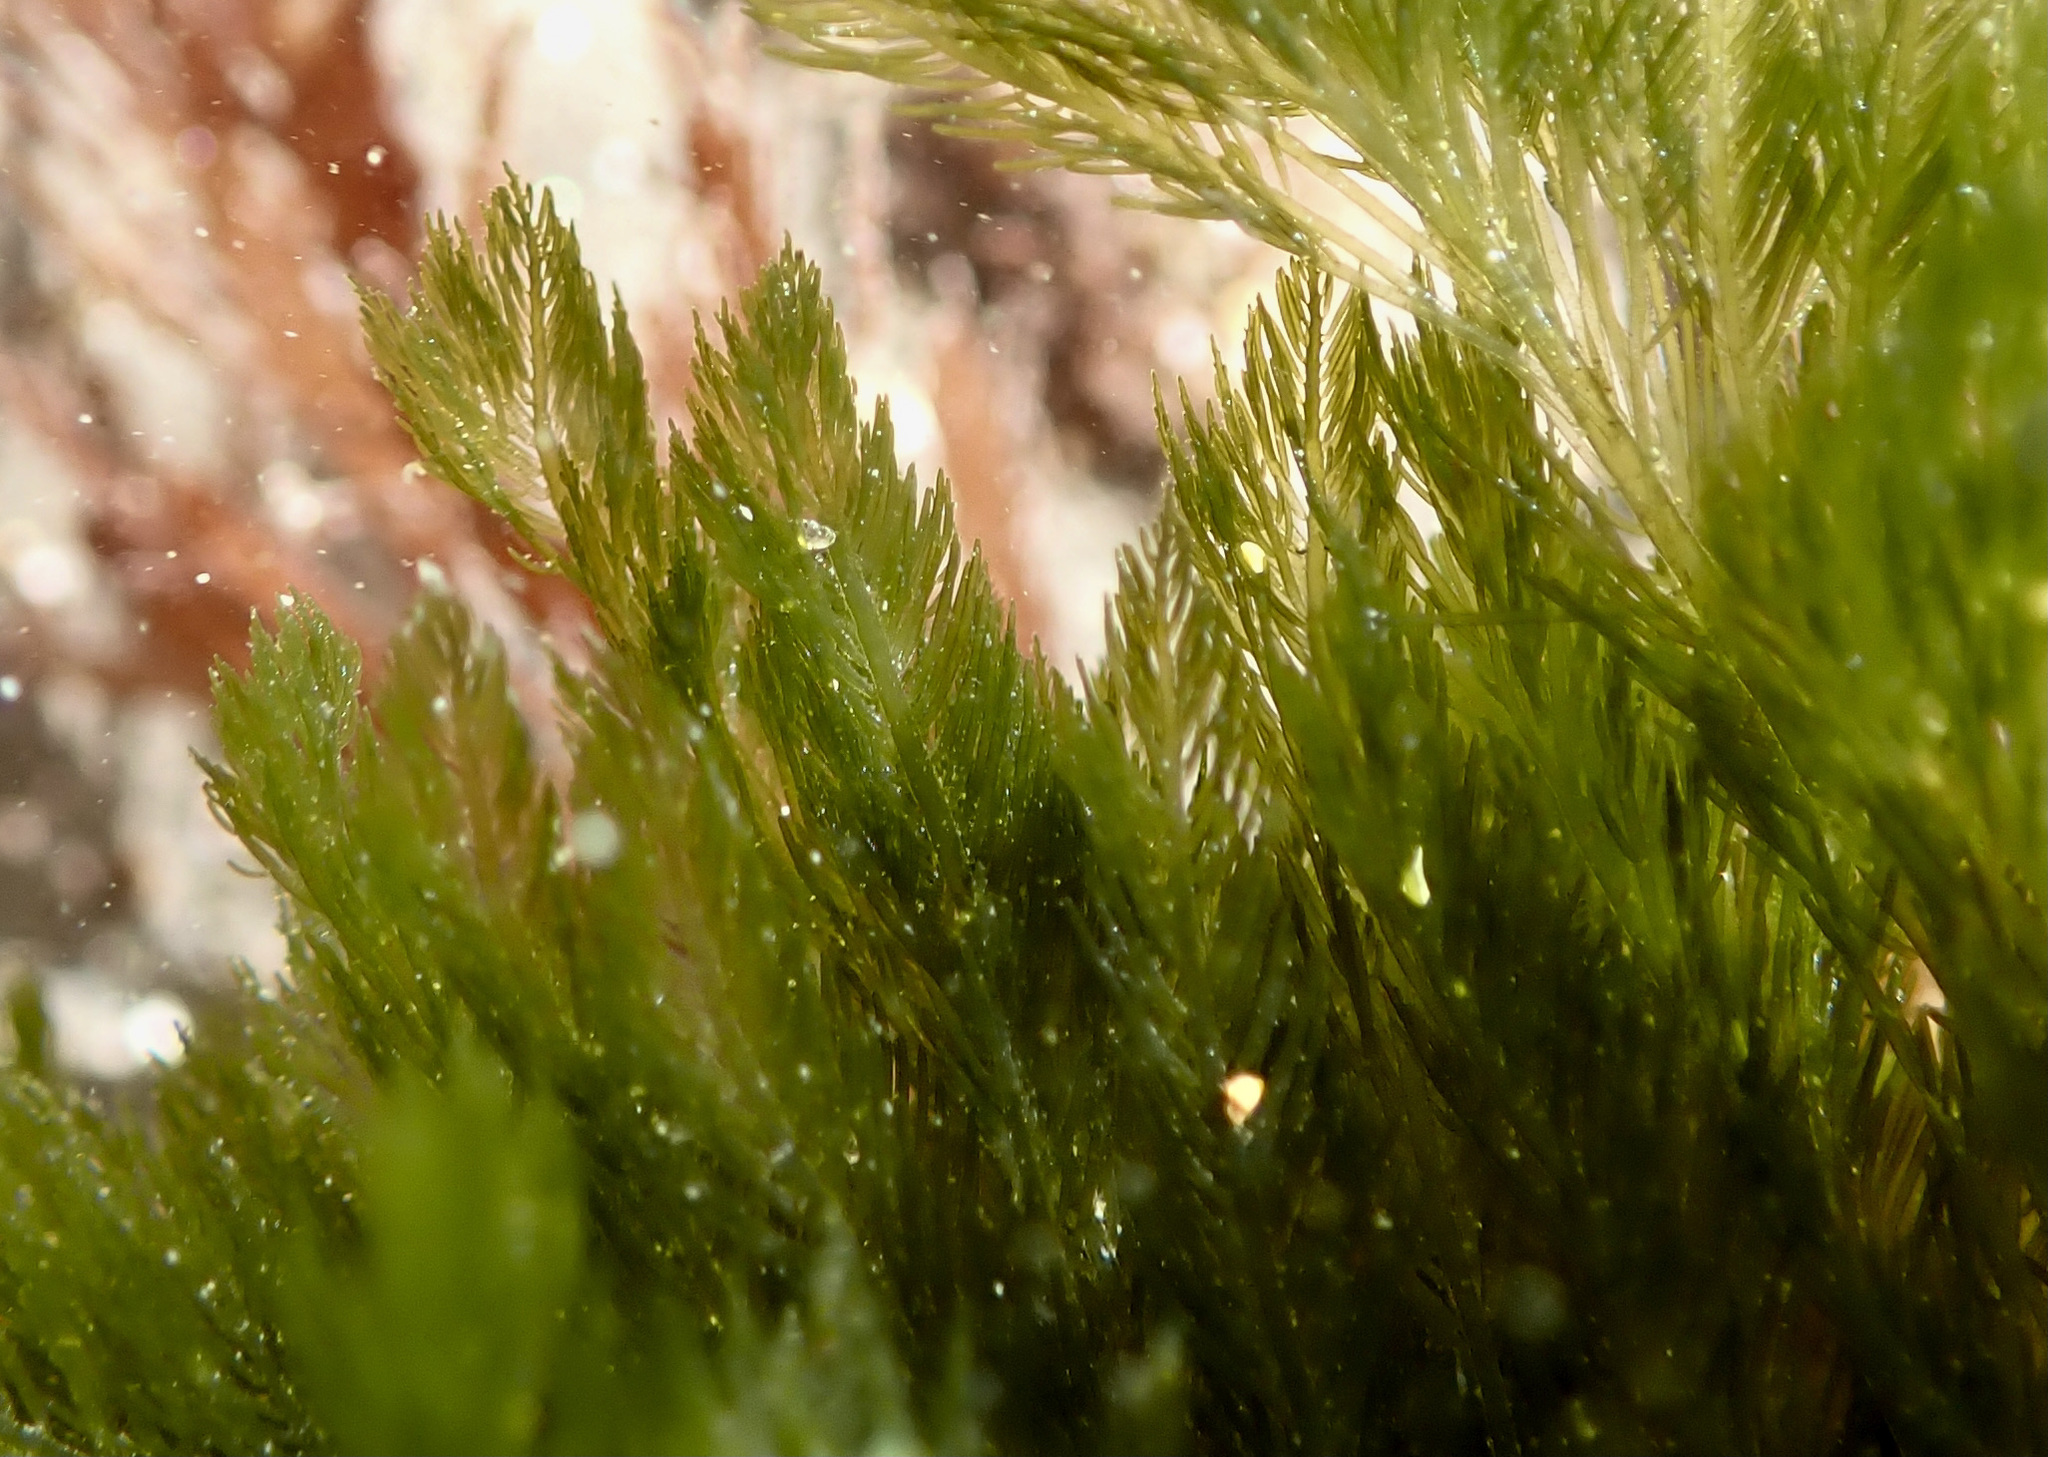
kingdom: Plantae
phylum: Chlorophyta
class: Ulvophyceae
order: Bryopsidales
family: Bryopsidaceae
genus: Bryopsis
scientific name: Bryopsis corticulans
